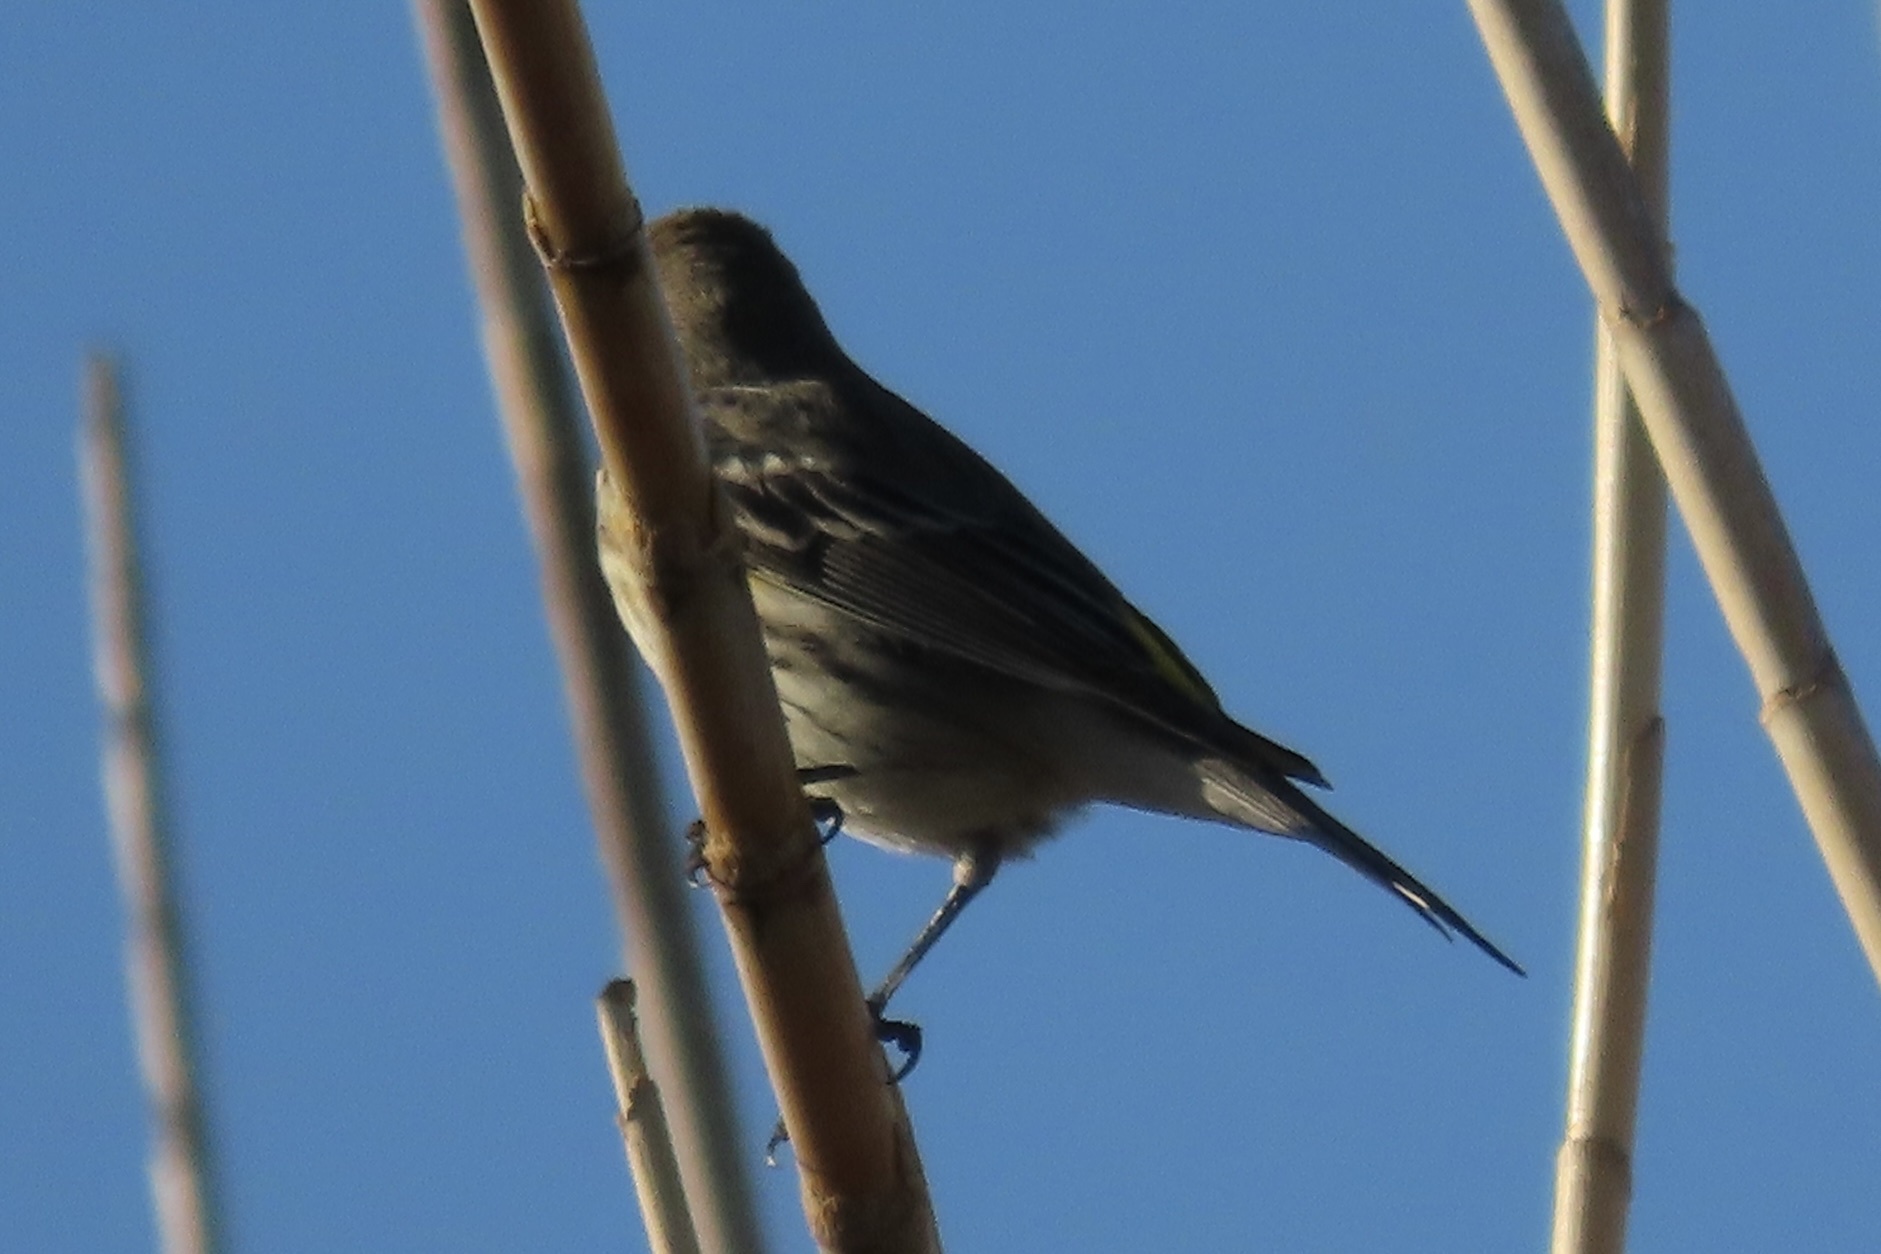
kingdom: Animalia
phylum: Chordata
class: Aves
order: Passeriformes
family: Parulidae
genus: Setophaga
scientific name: Setophaga coronata
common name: Myrtle warbler
